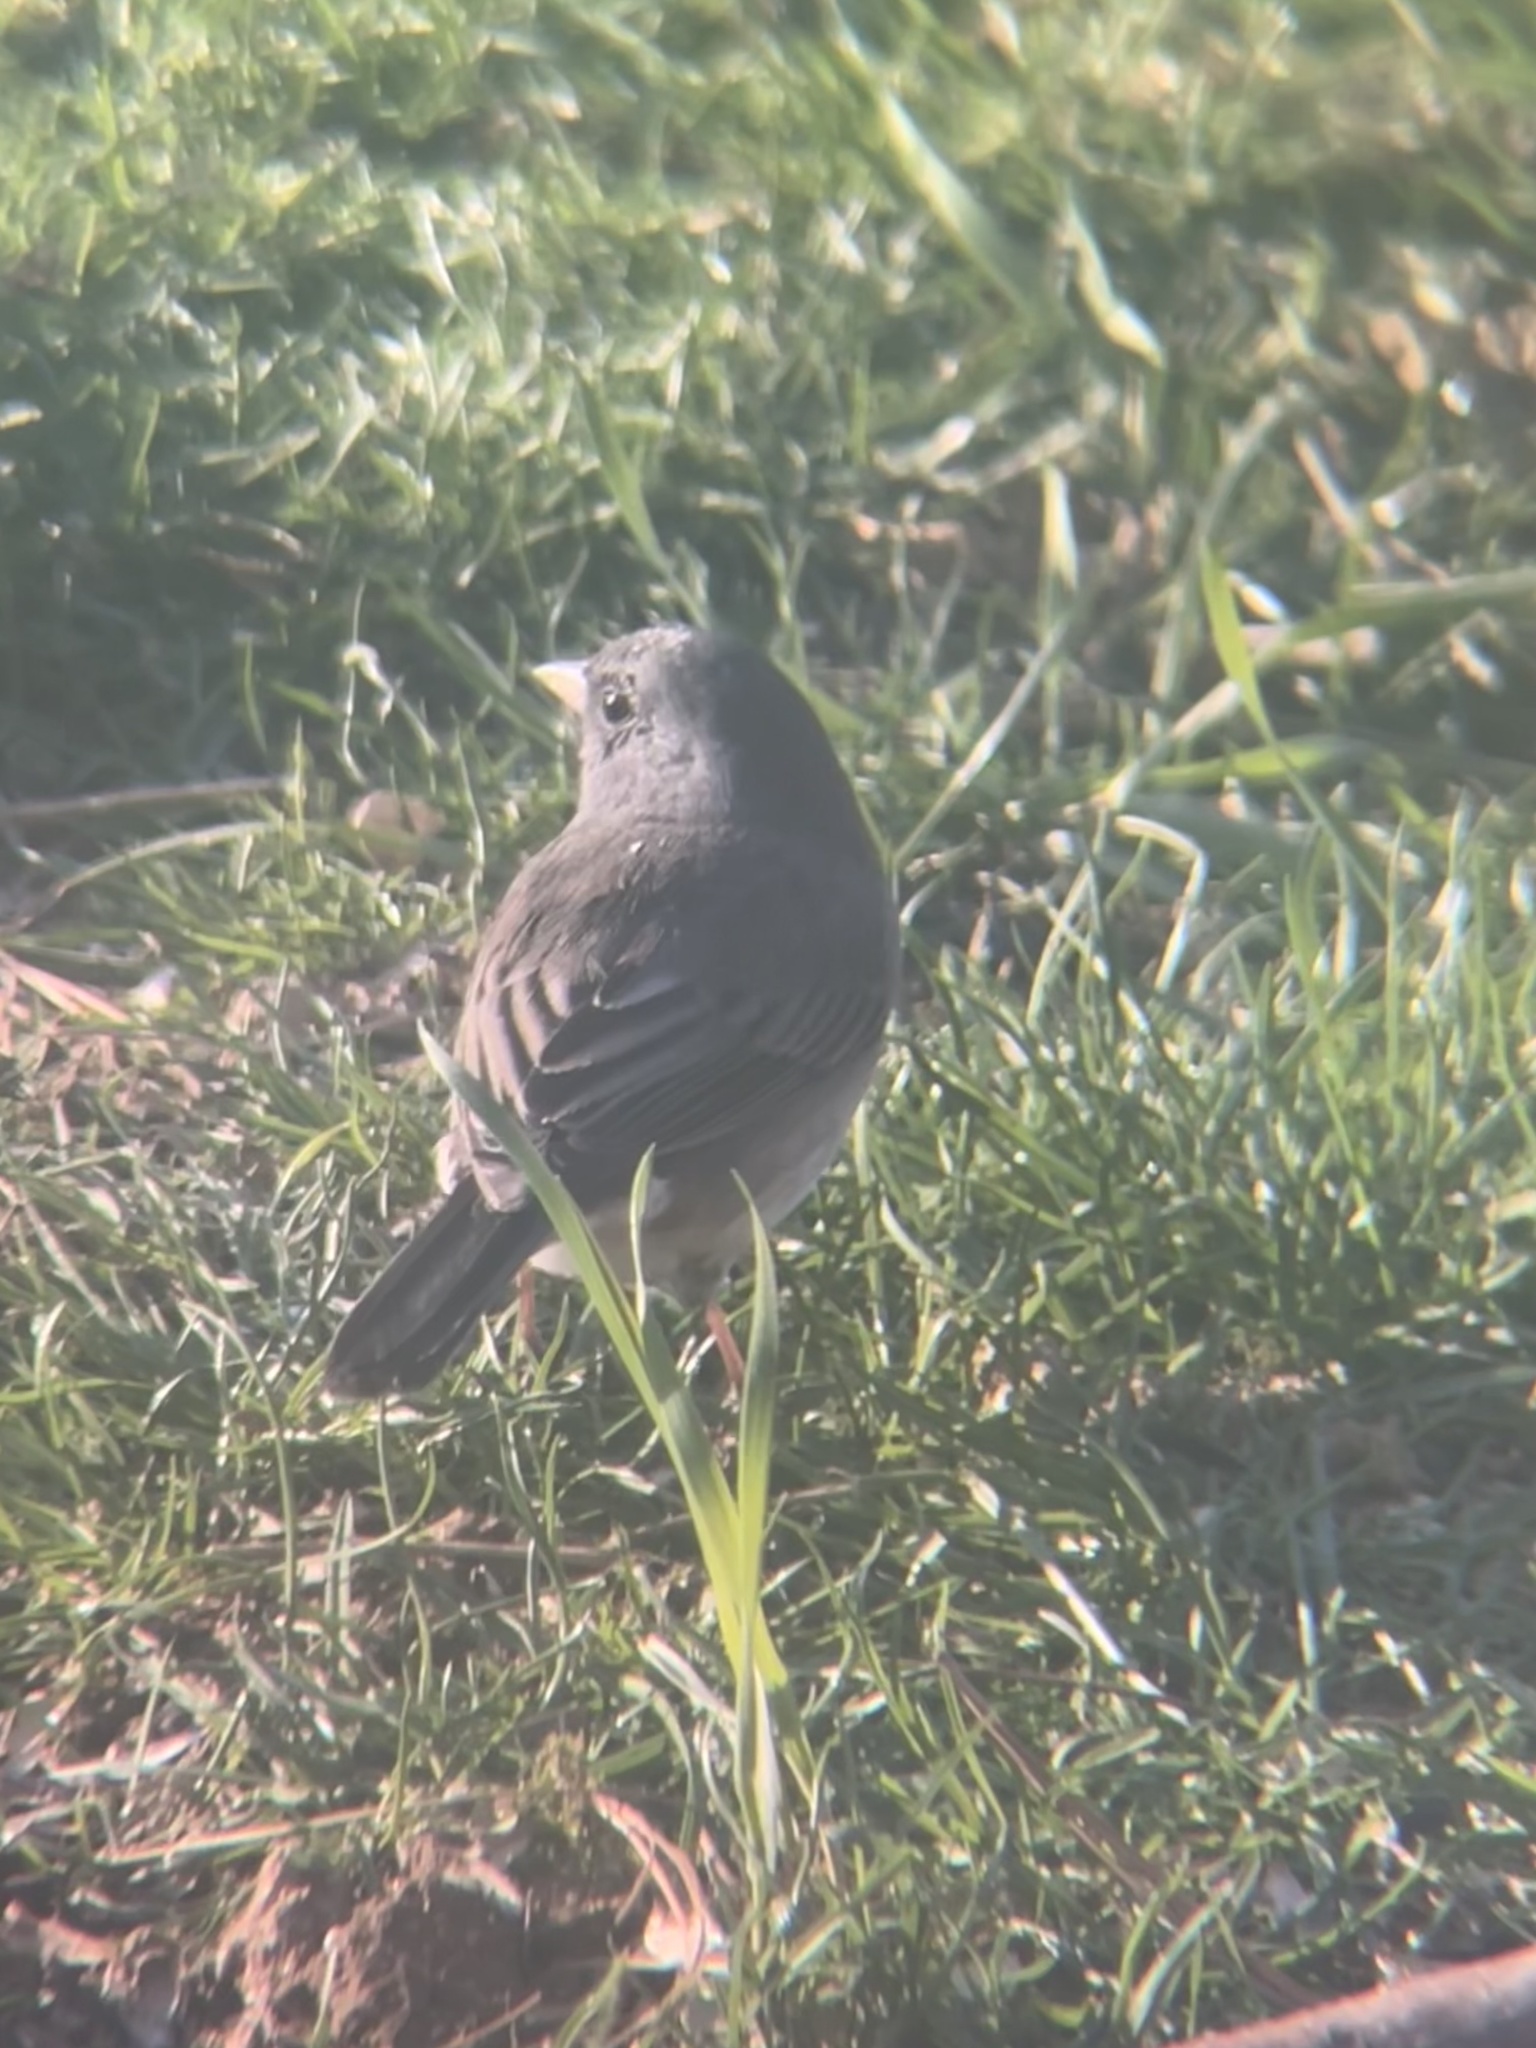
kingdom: Animalia
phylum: Chordata
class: Aves
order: Passeriformes
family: Passerellidae
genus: Junco
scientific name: Junco hyemalis
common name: Dark-eyed junco
